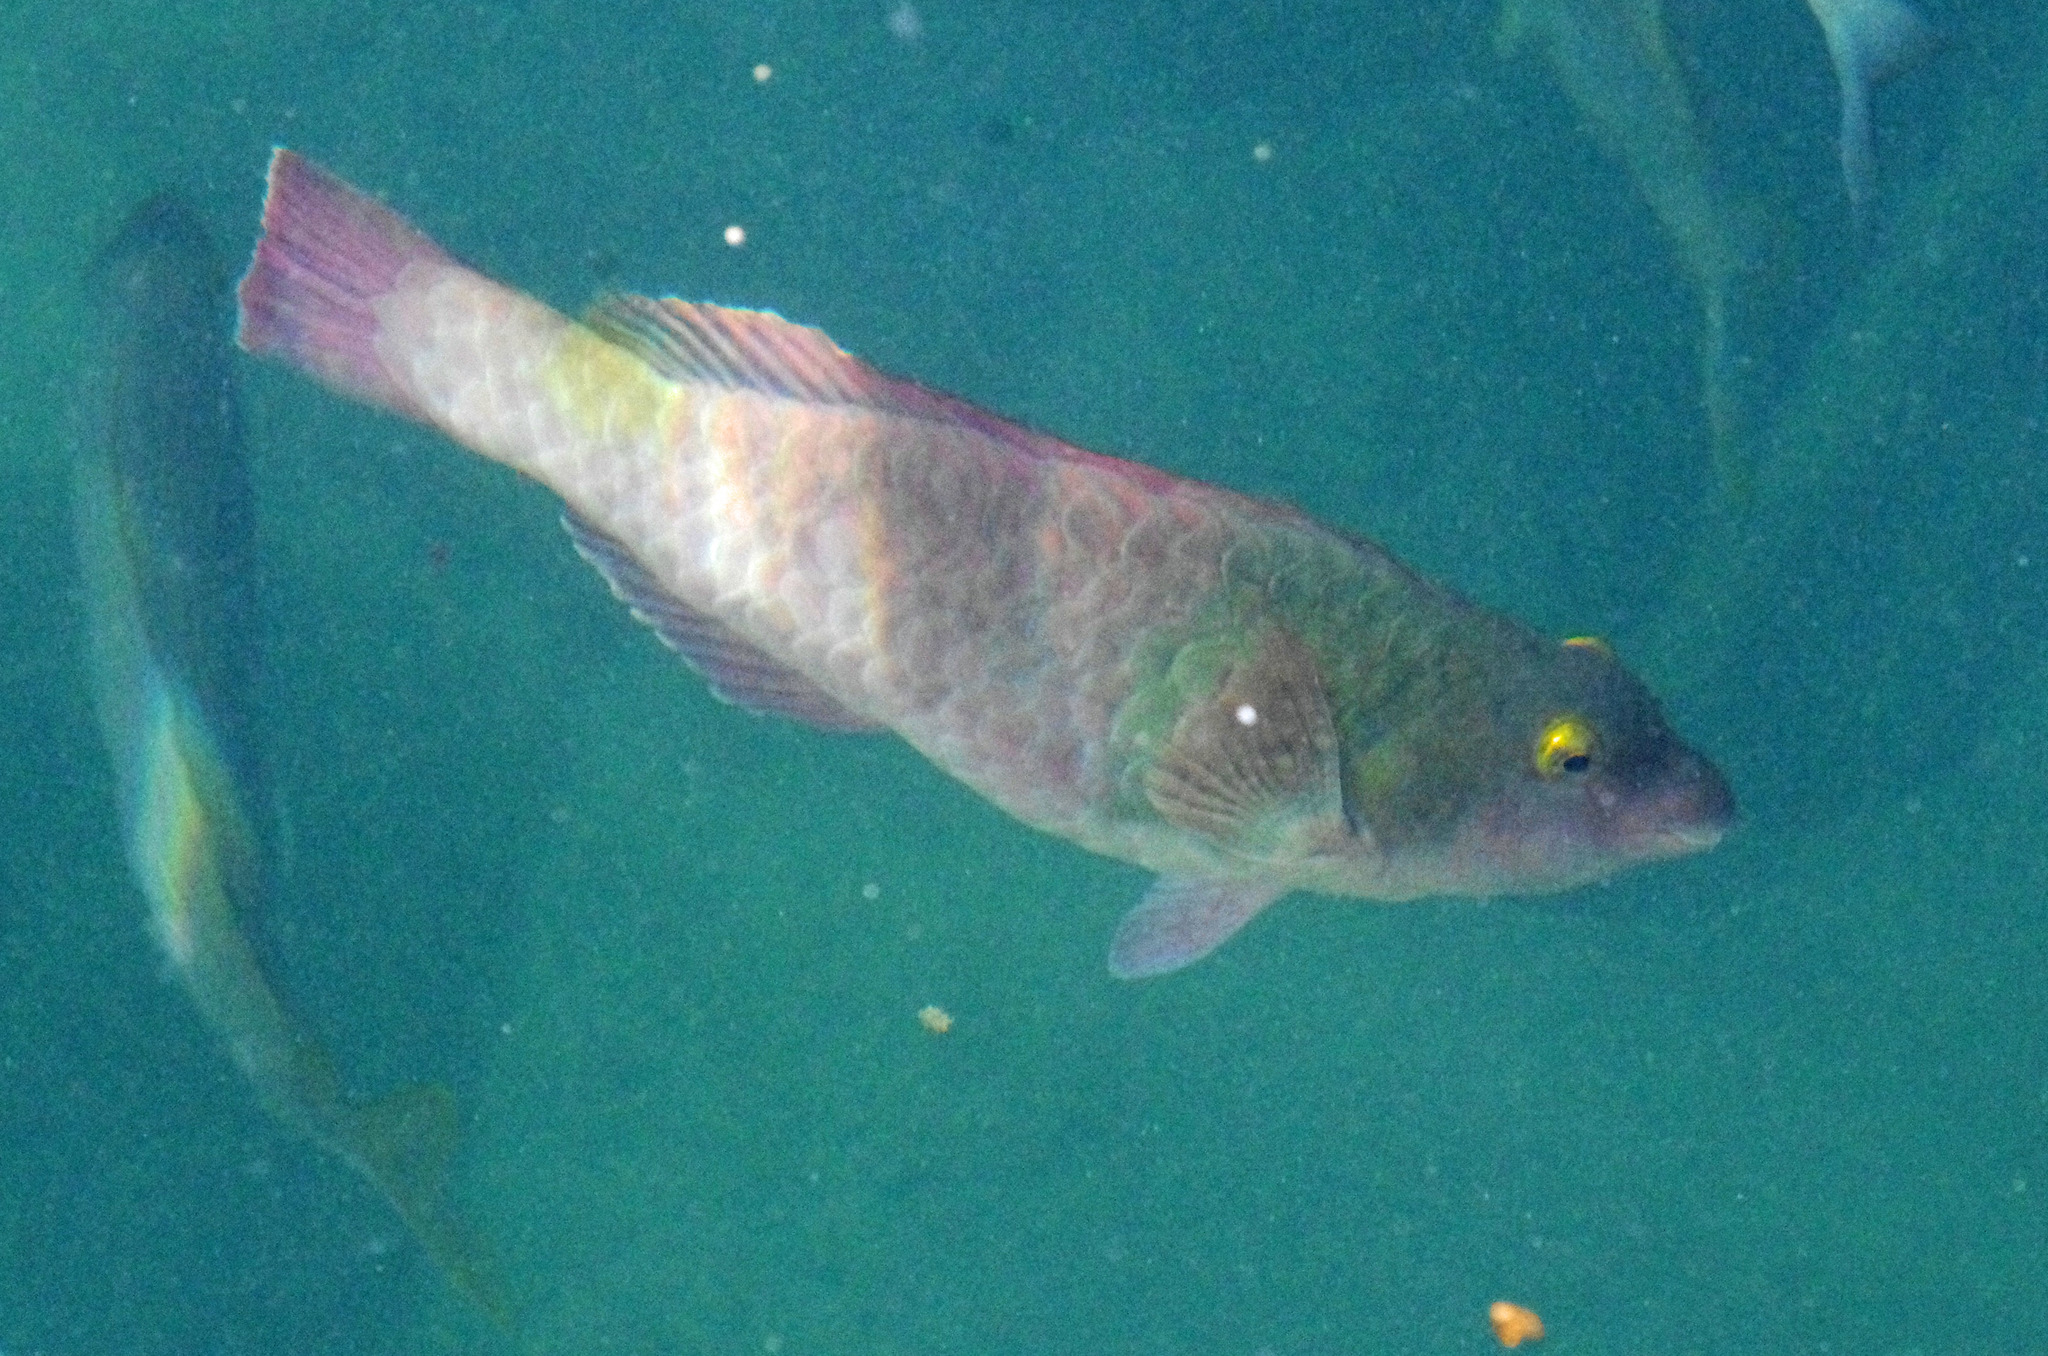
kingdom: Animalia
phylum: Chordata
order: Perciformes
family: Scaridae
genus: Sparisoma
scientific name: Sparisoma cretense
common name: Parrotfish
